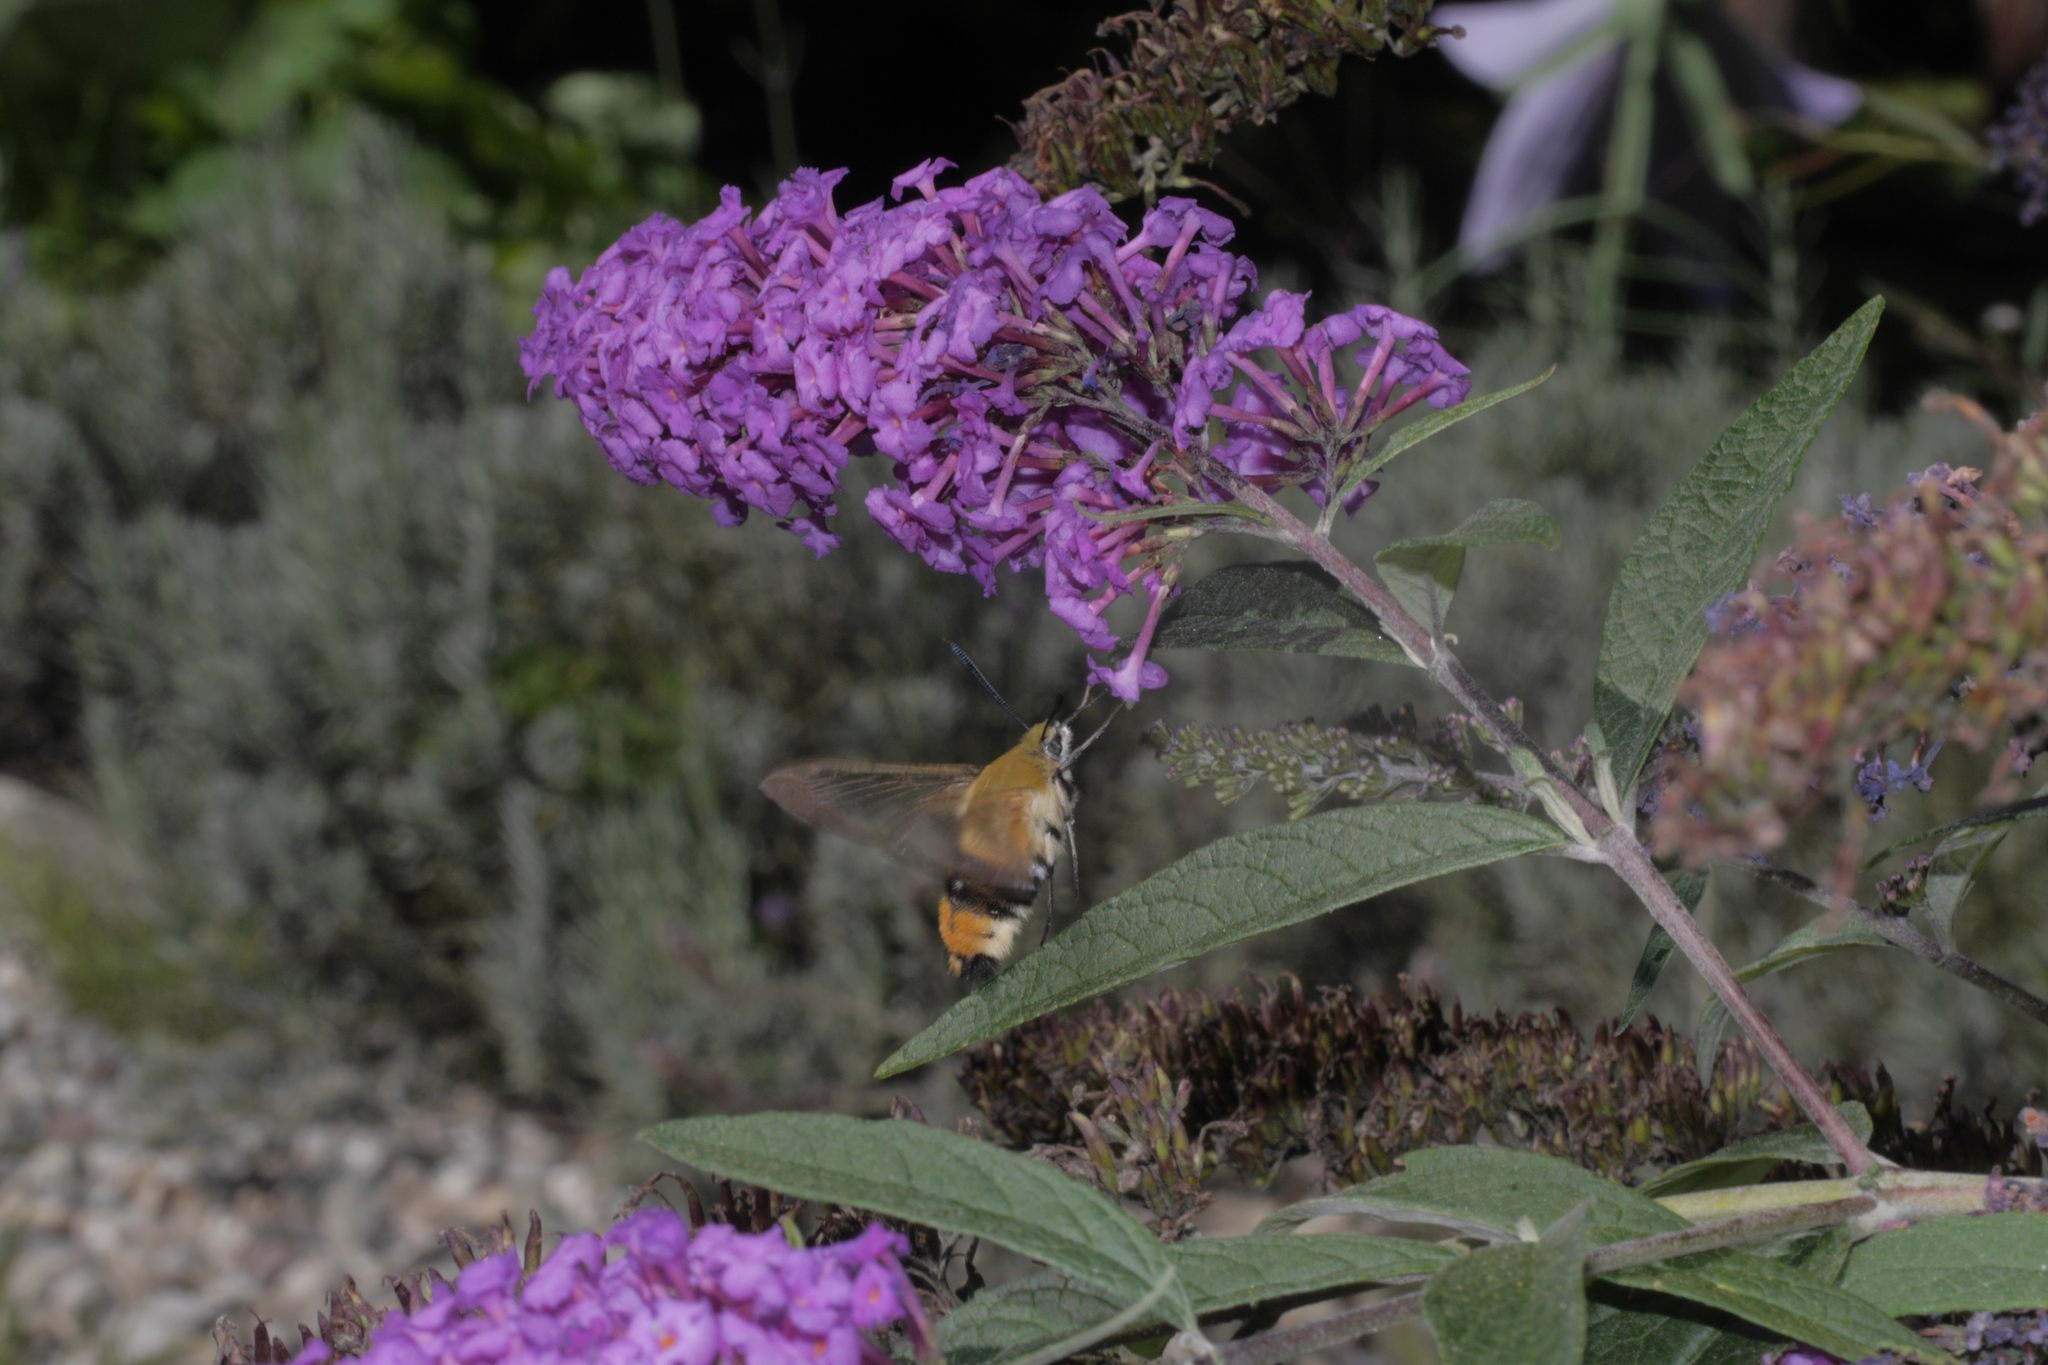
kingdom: Animalia
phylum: Arthropoda
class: Insecta
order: Lepidoptera
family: Sphingidae
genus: Hemaris
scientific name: Hemaris tityus
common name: Narrow-bordered bee hawk-moth
